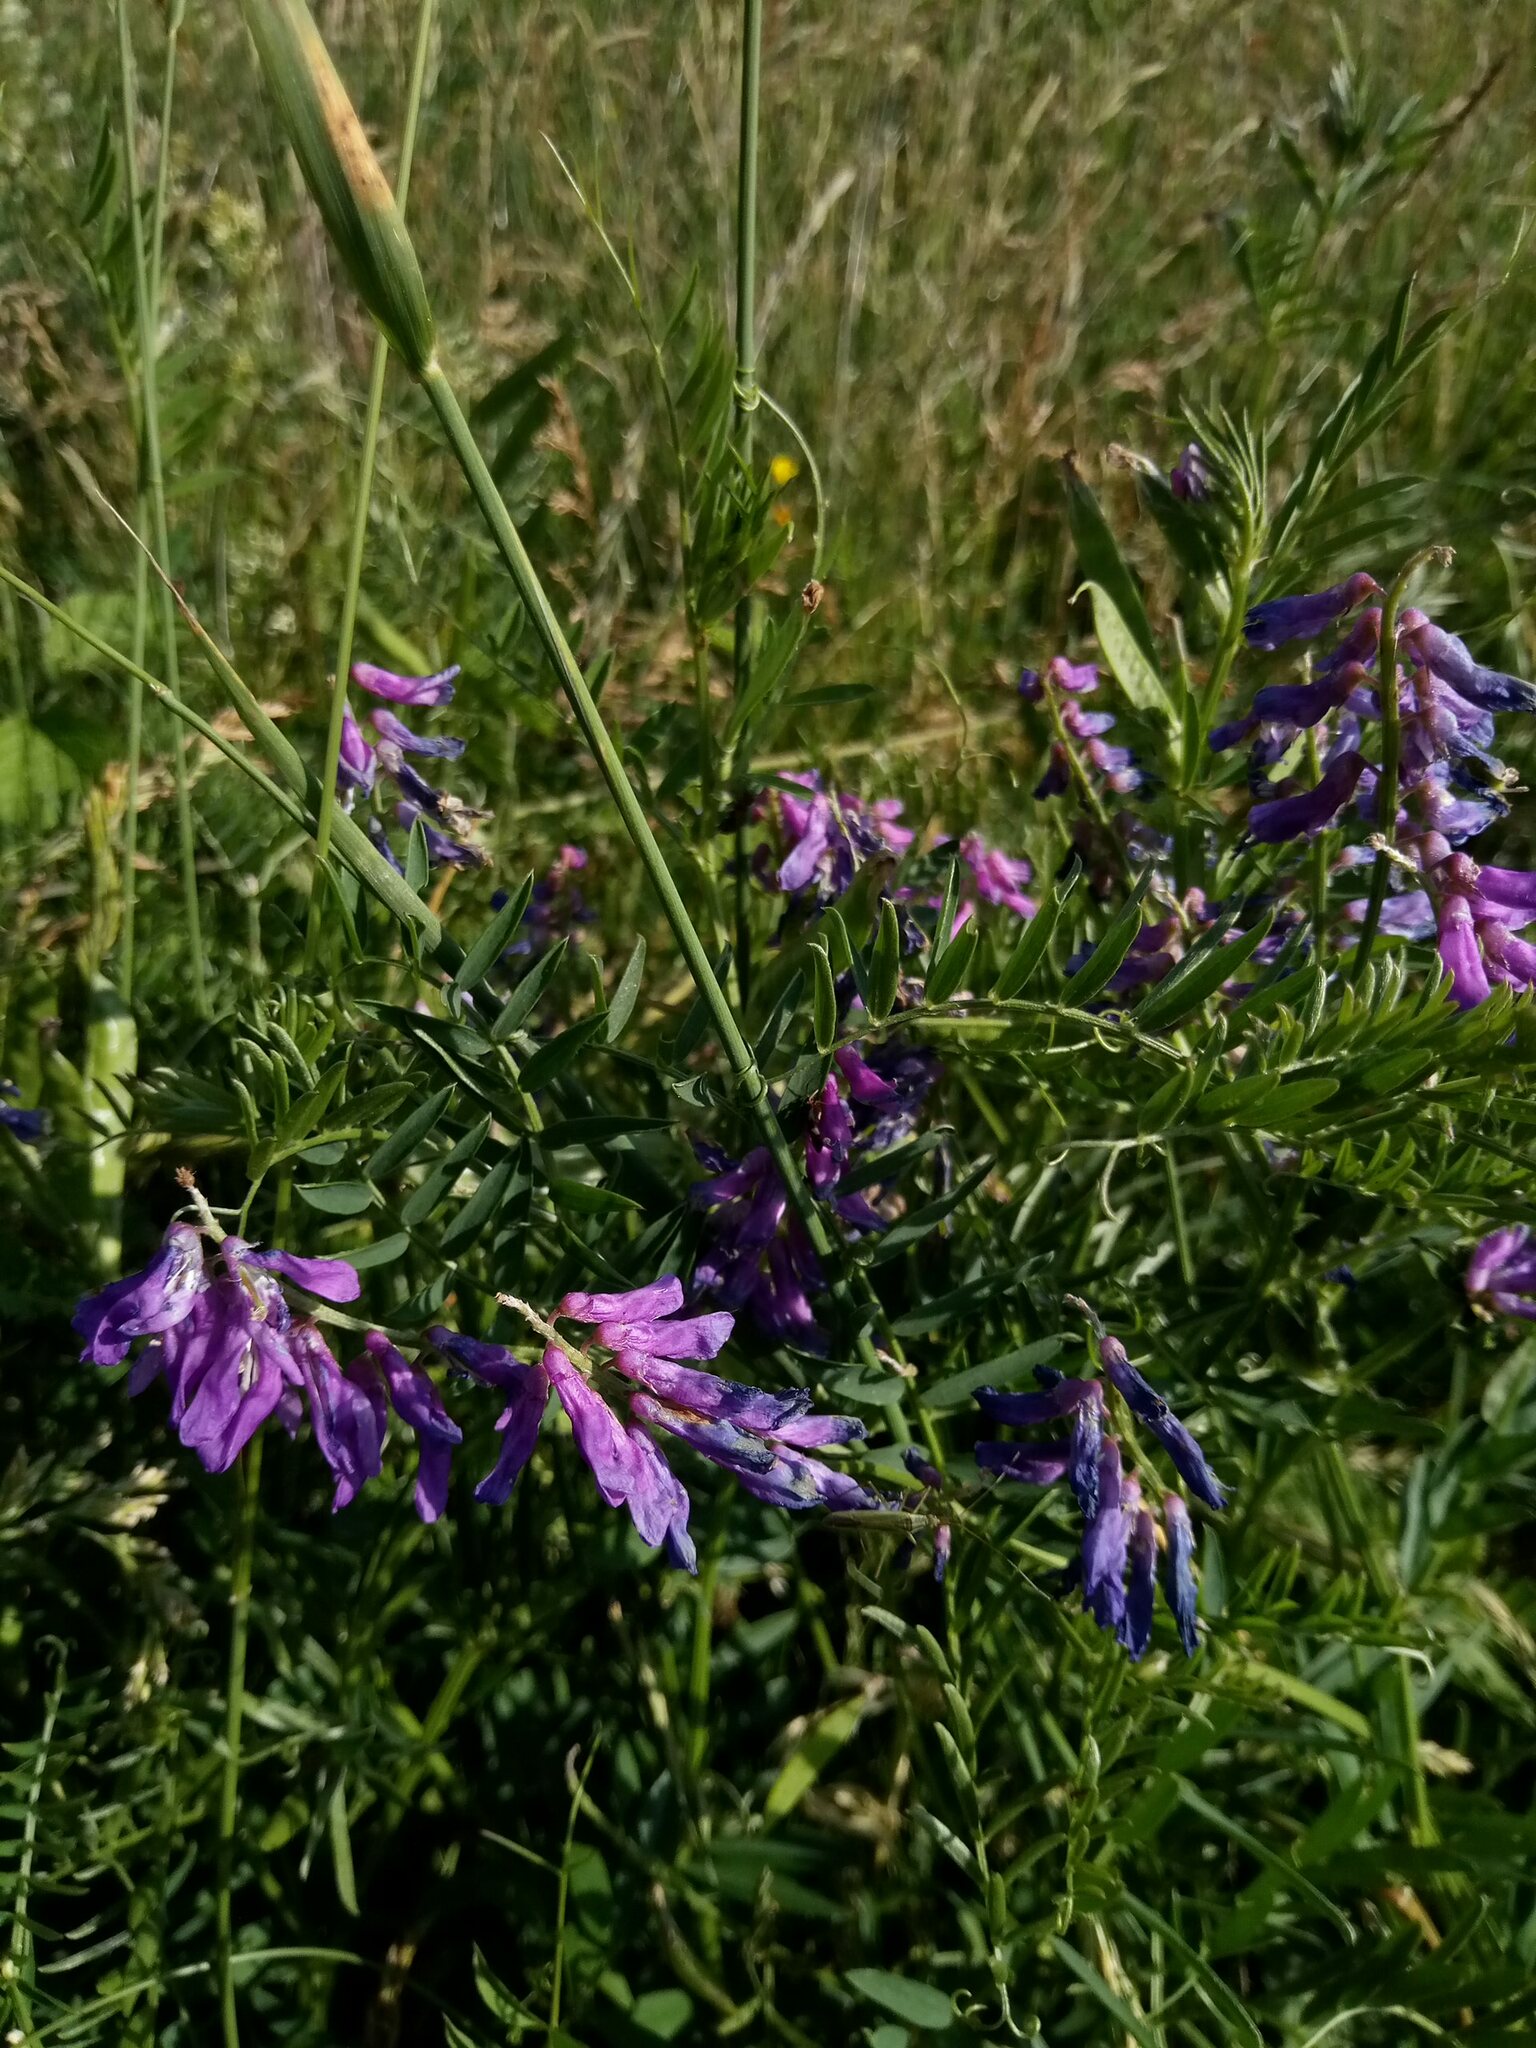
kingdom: Plantae
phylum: Tracheophyta
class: Magnoliopsida
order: Fabales
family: Fabaceae
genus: Vicia
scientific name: Vicia cracca
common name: Bird vetch
